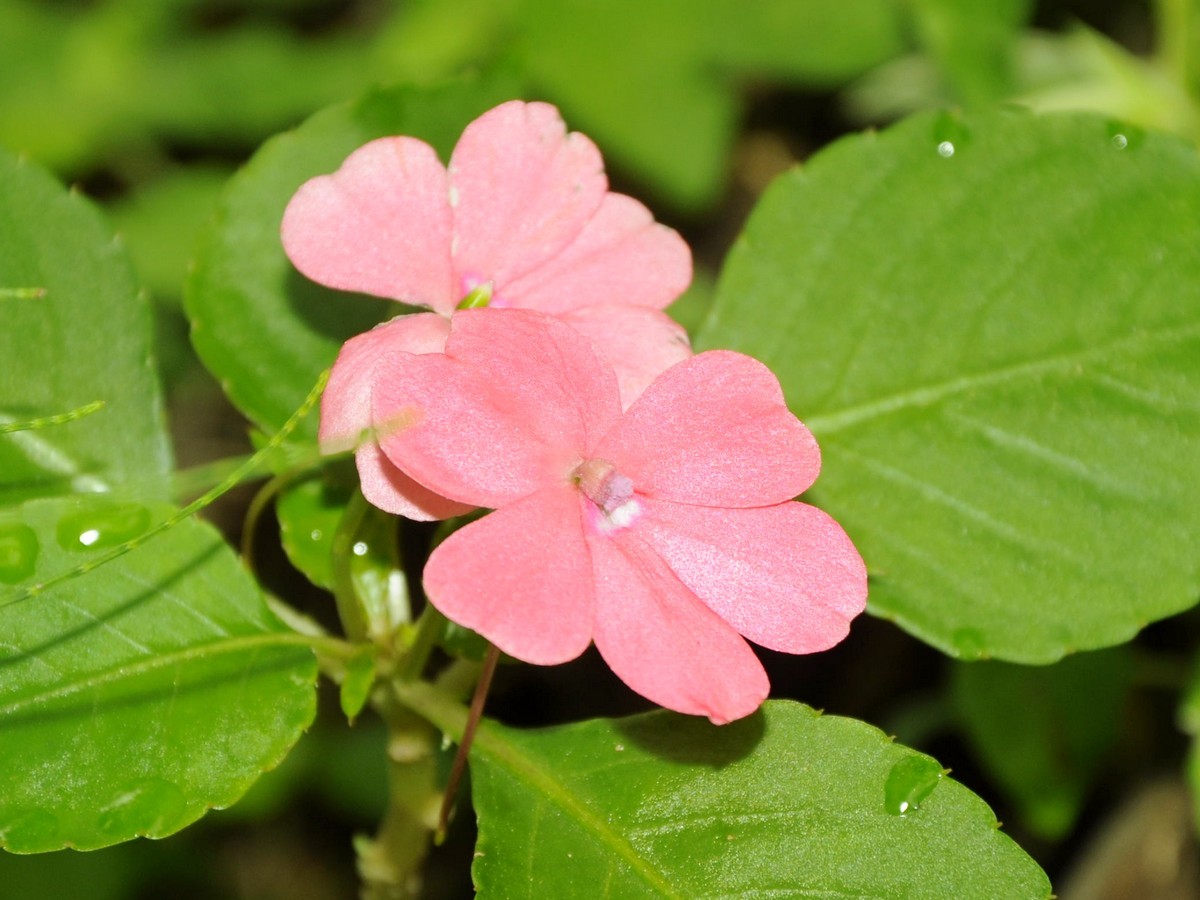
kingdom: Plantae
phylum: Tracheophyta
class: Magnoliopsida
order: Ericales
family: Balsaminaceae
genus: Impatiens
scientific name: Impatiens walleriana
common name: Buzzy lizzy
